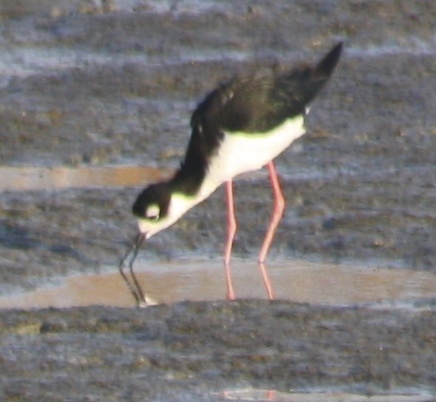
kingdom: Animalia
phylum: Chordata
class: Aves
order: Charadriiformes
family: Recurvirostridae
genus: Himantopus
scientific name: Himantopus mexicanus
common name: Black-necked stilt
